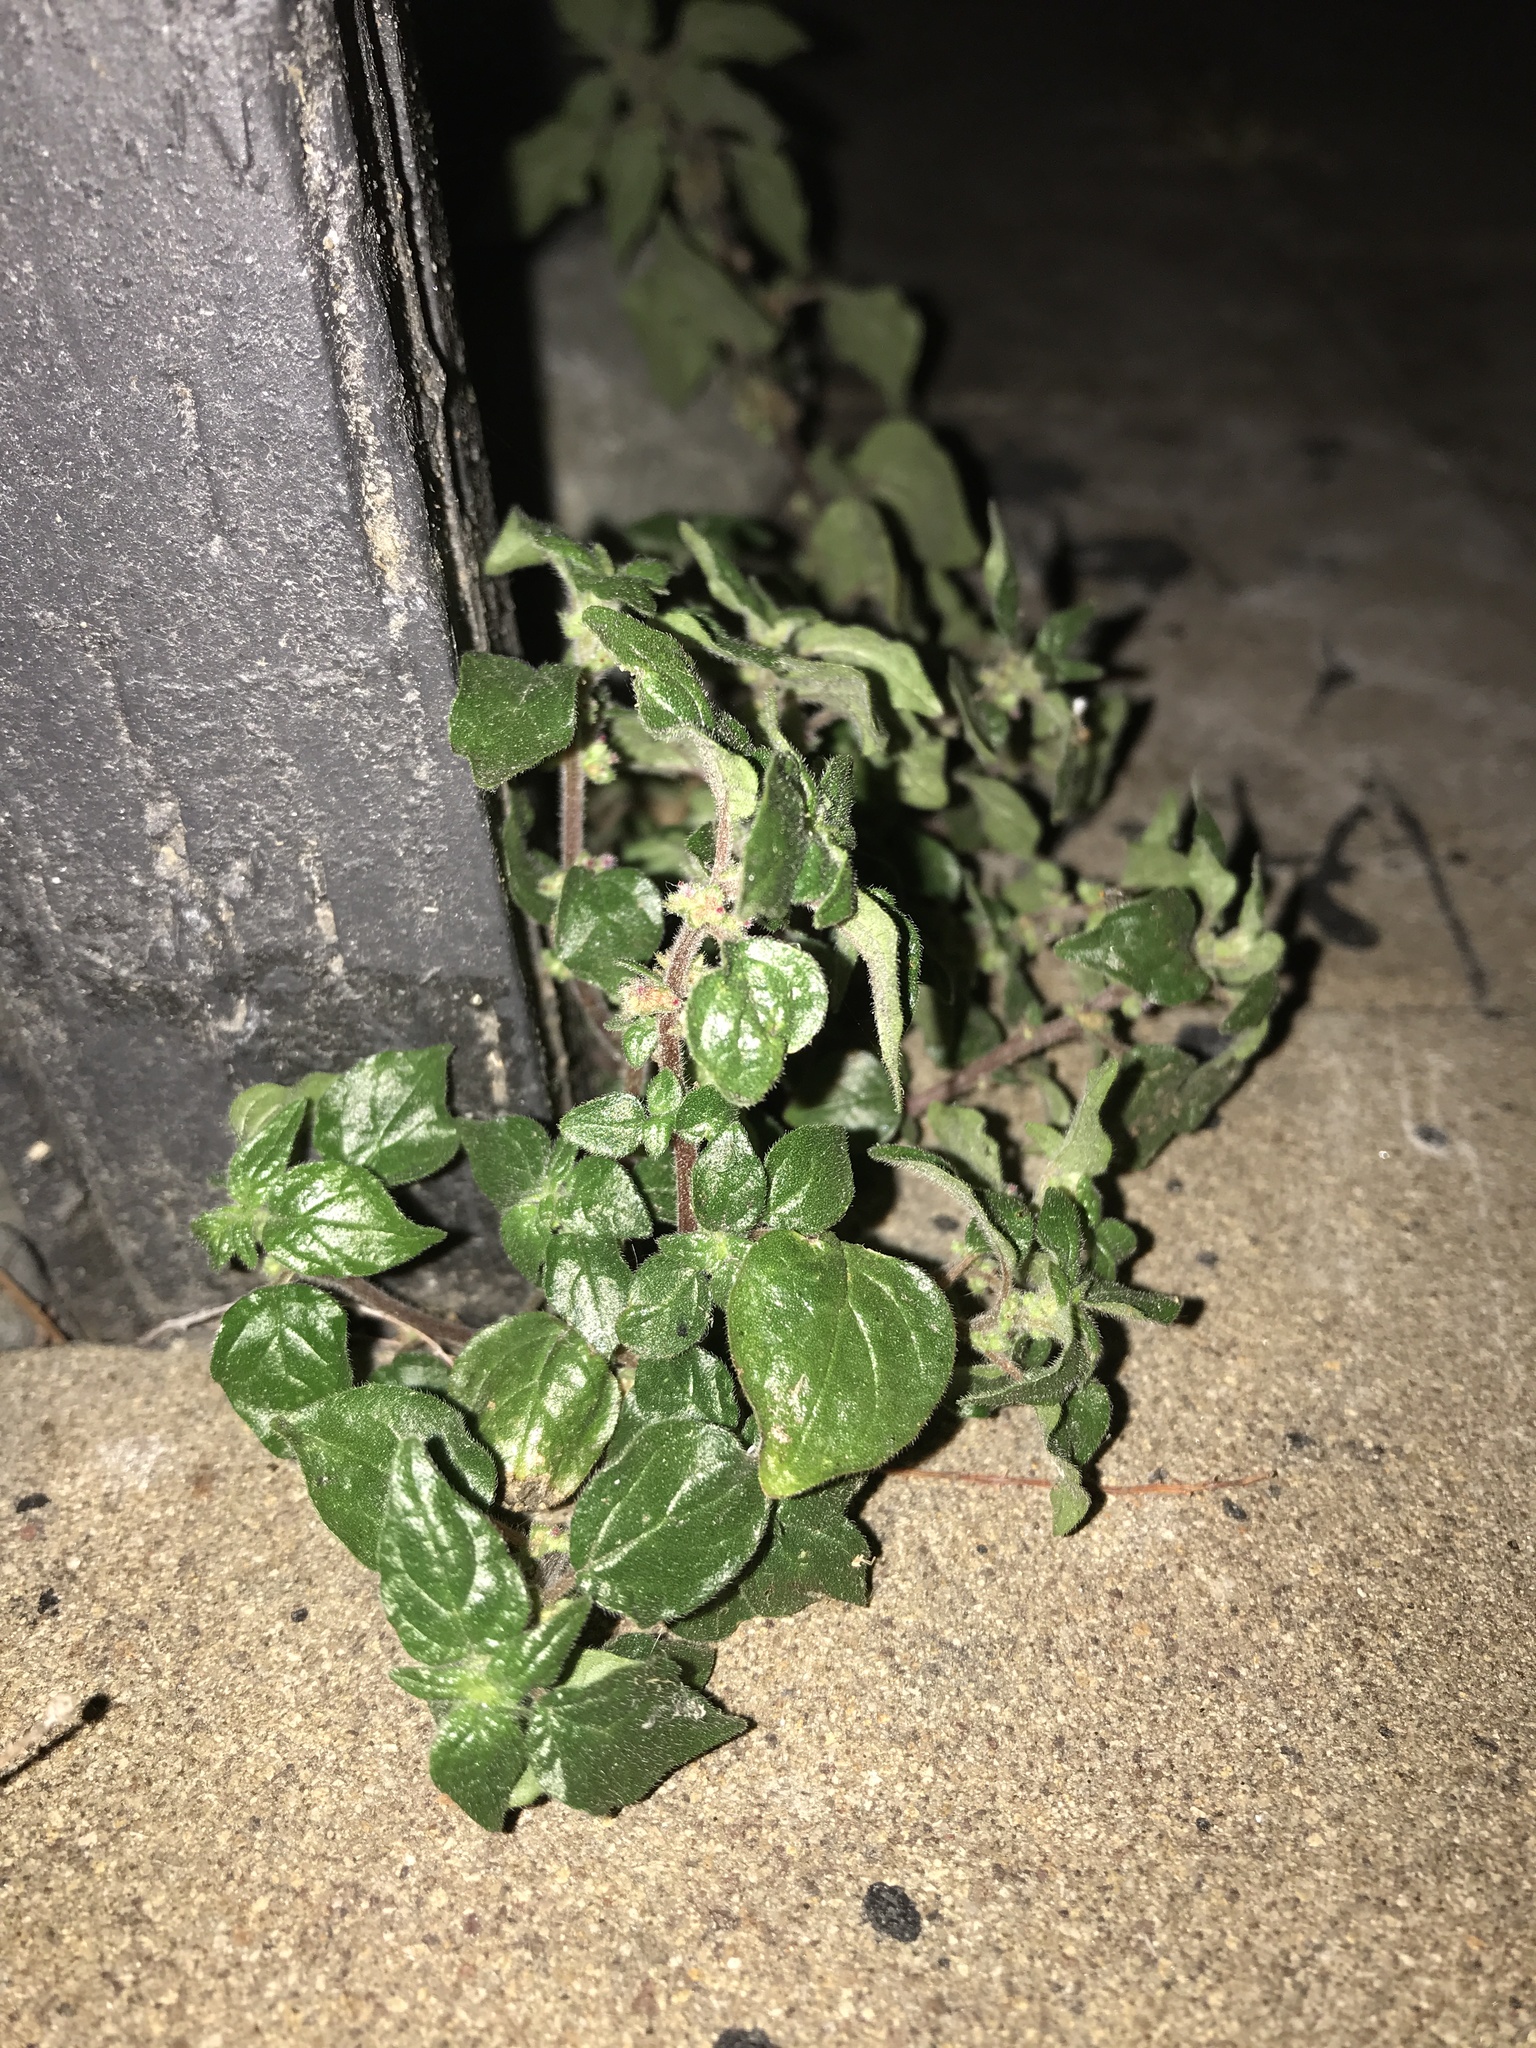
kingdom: Plantae
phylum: Tracheophyta
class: Magnoliopsida
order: Rosales
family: Urticaceae
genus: Parietaria
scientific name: Parietaria judaica
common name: Pellitory-of-the-wall
